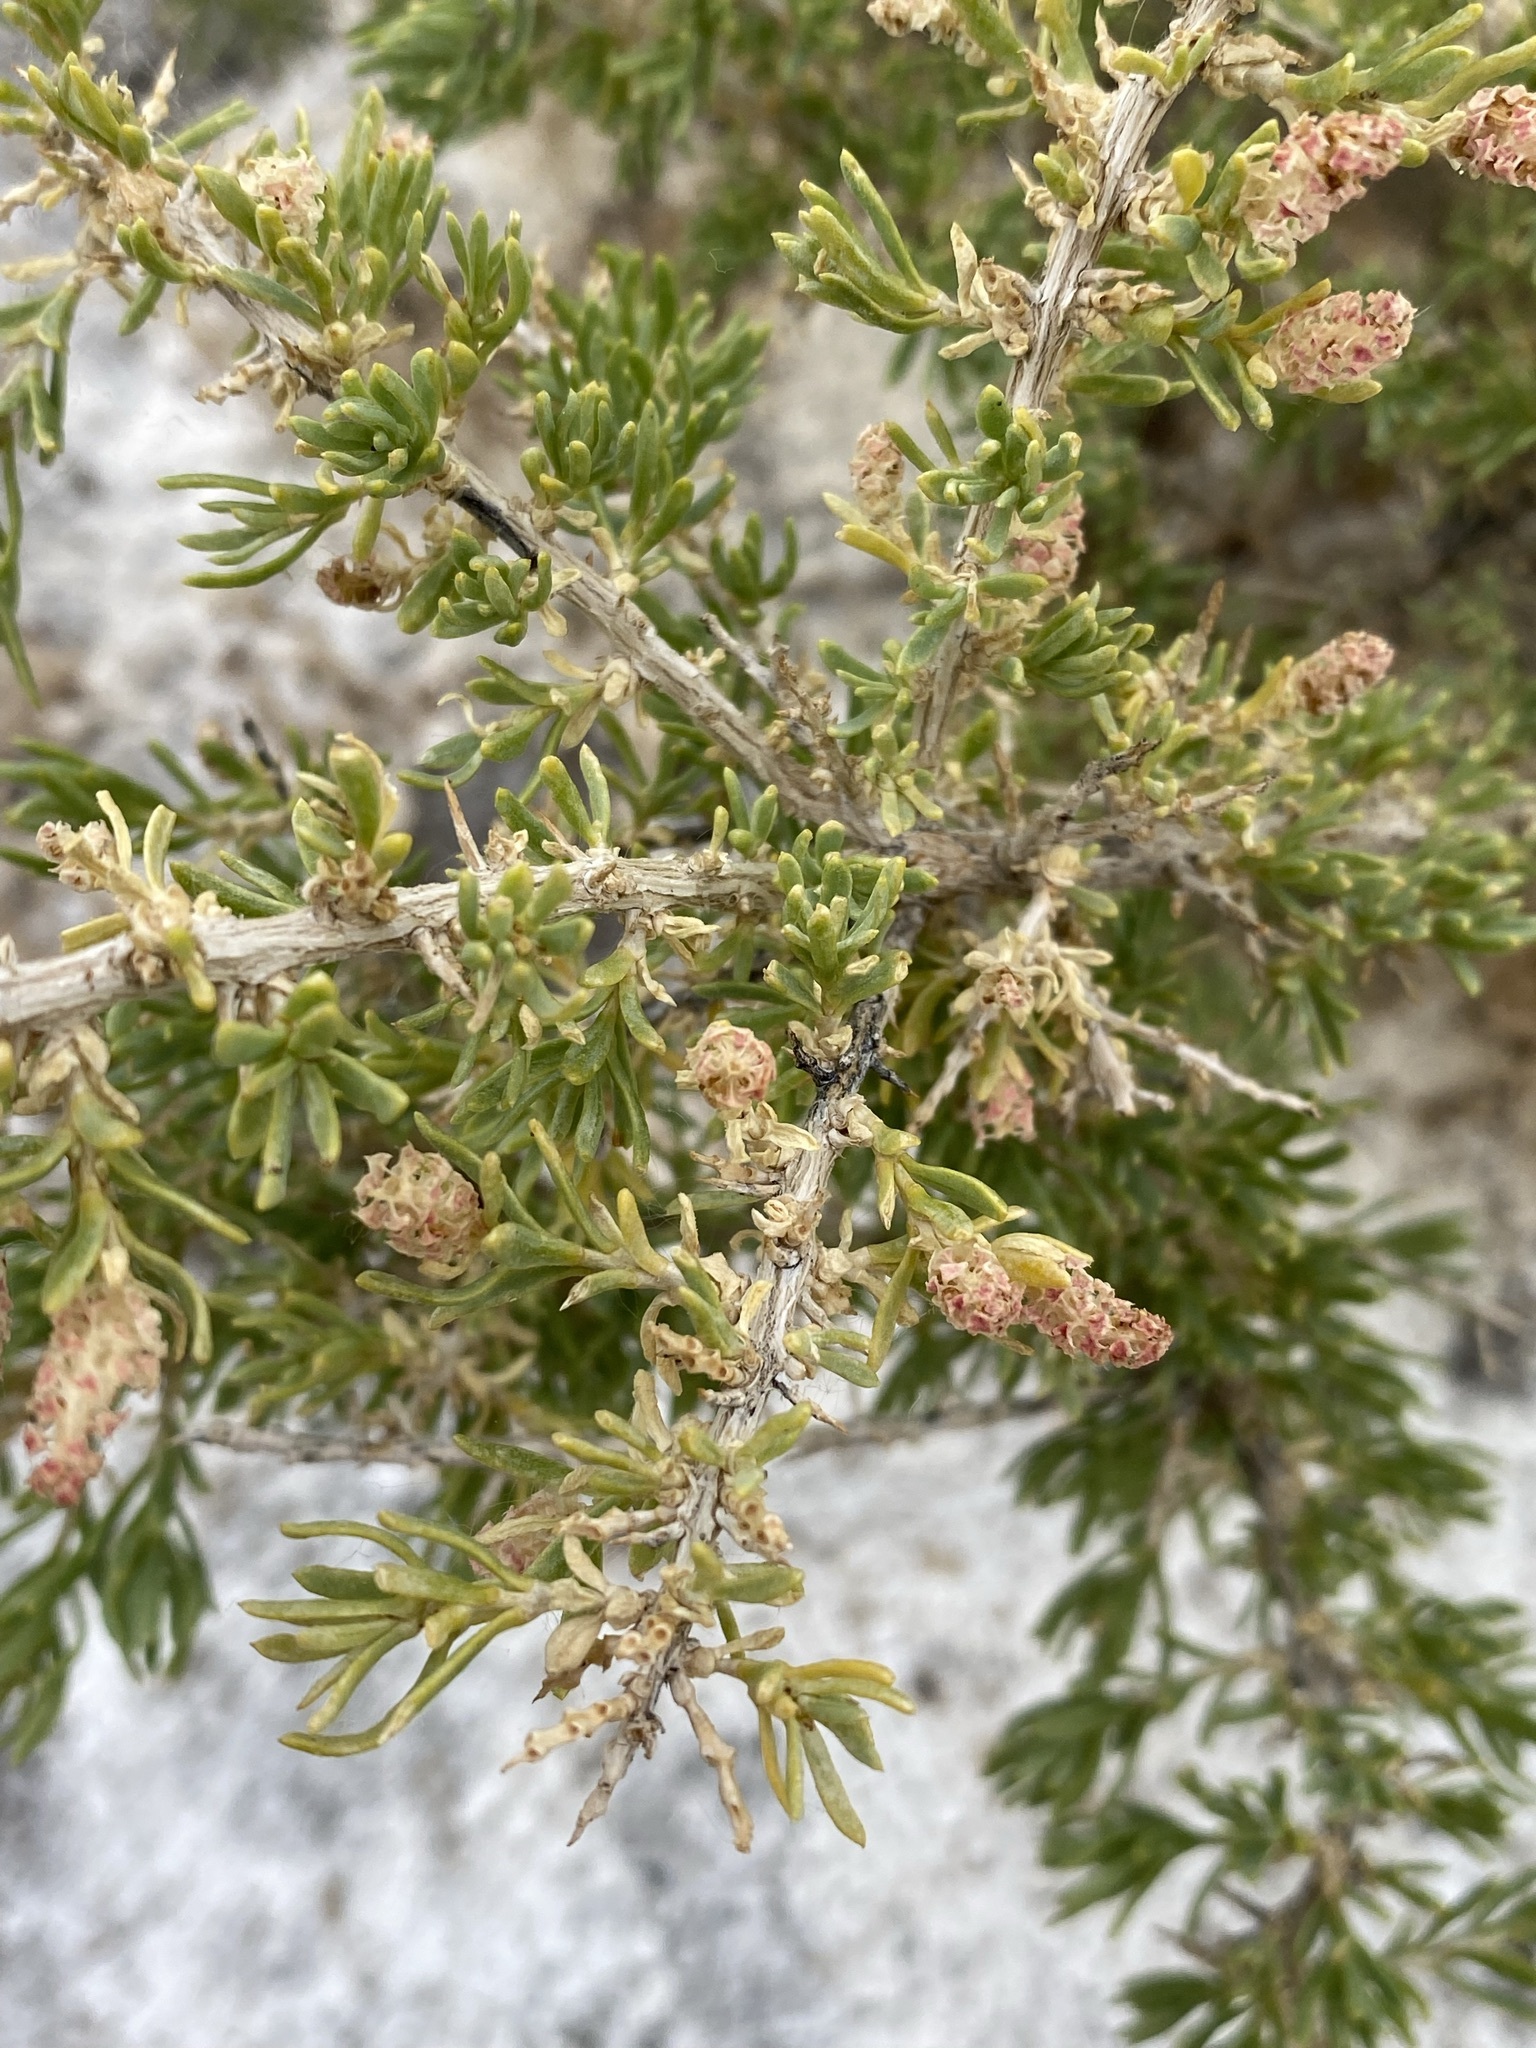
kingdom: Plantae
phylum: Tracheophyta
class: Magnoliopsida
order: Caryophyllales
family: Sarcobataceae
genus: Sarcobatus
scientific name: Sarcobatus vermiculatus
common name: Greasewood
